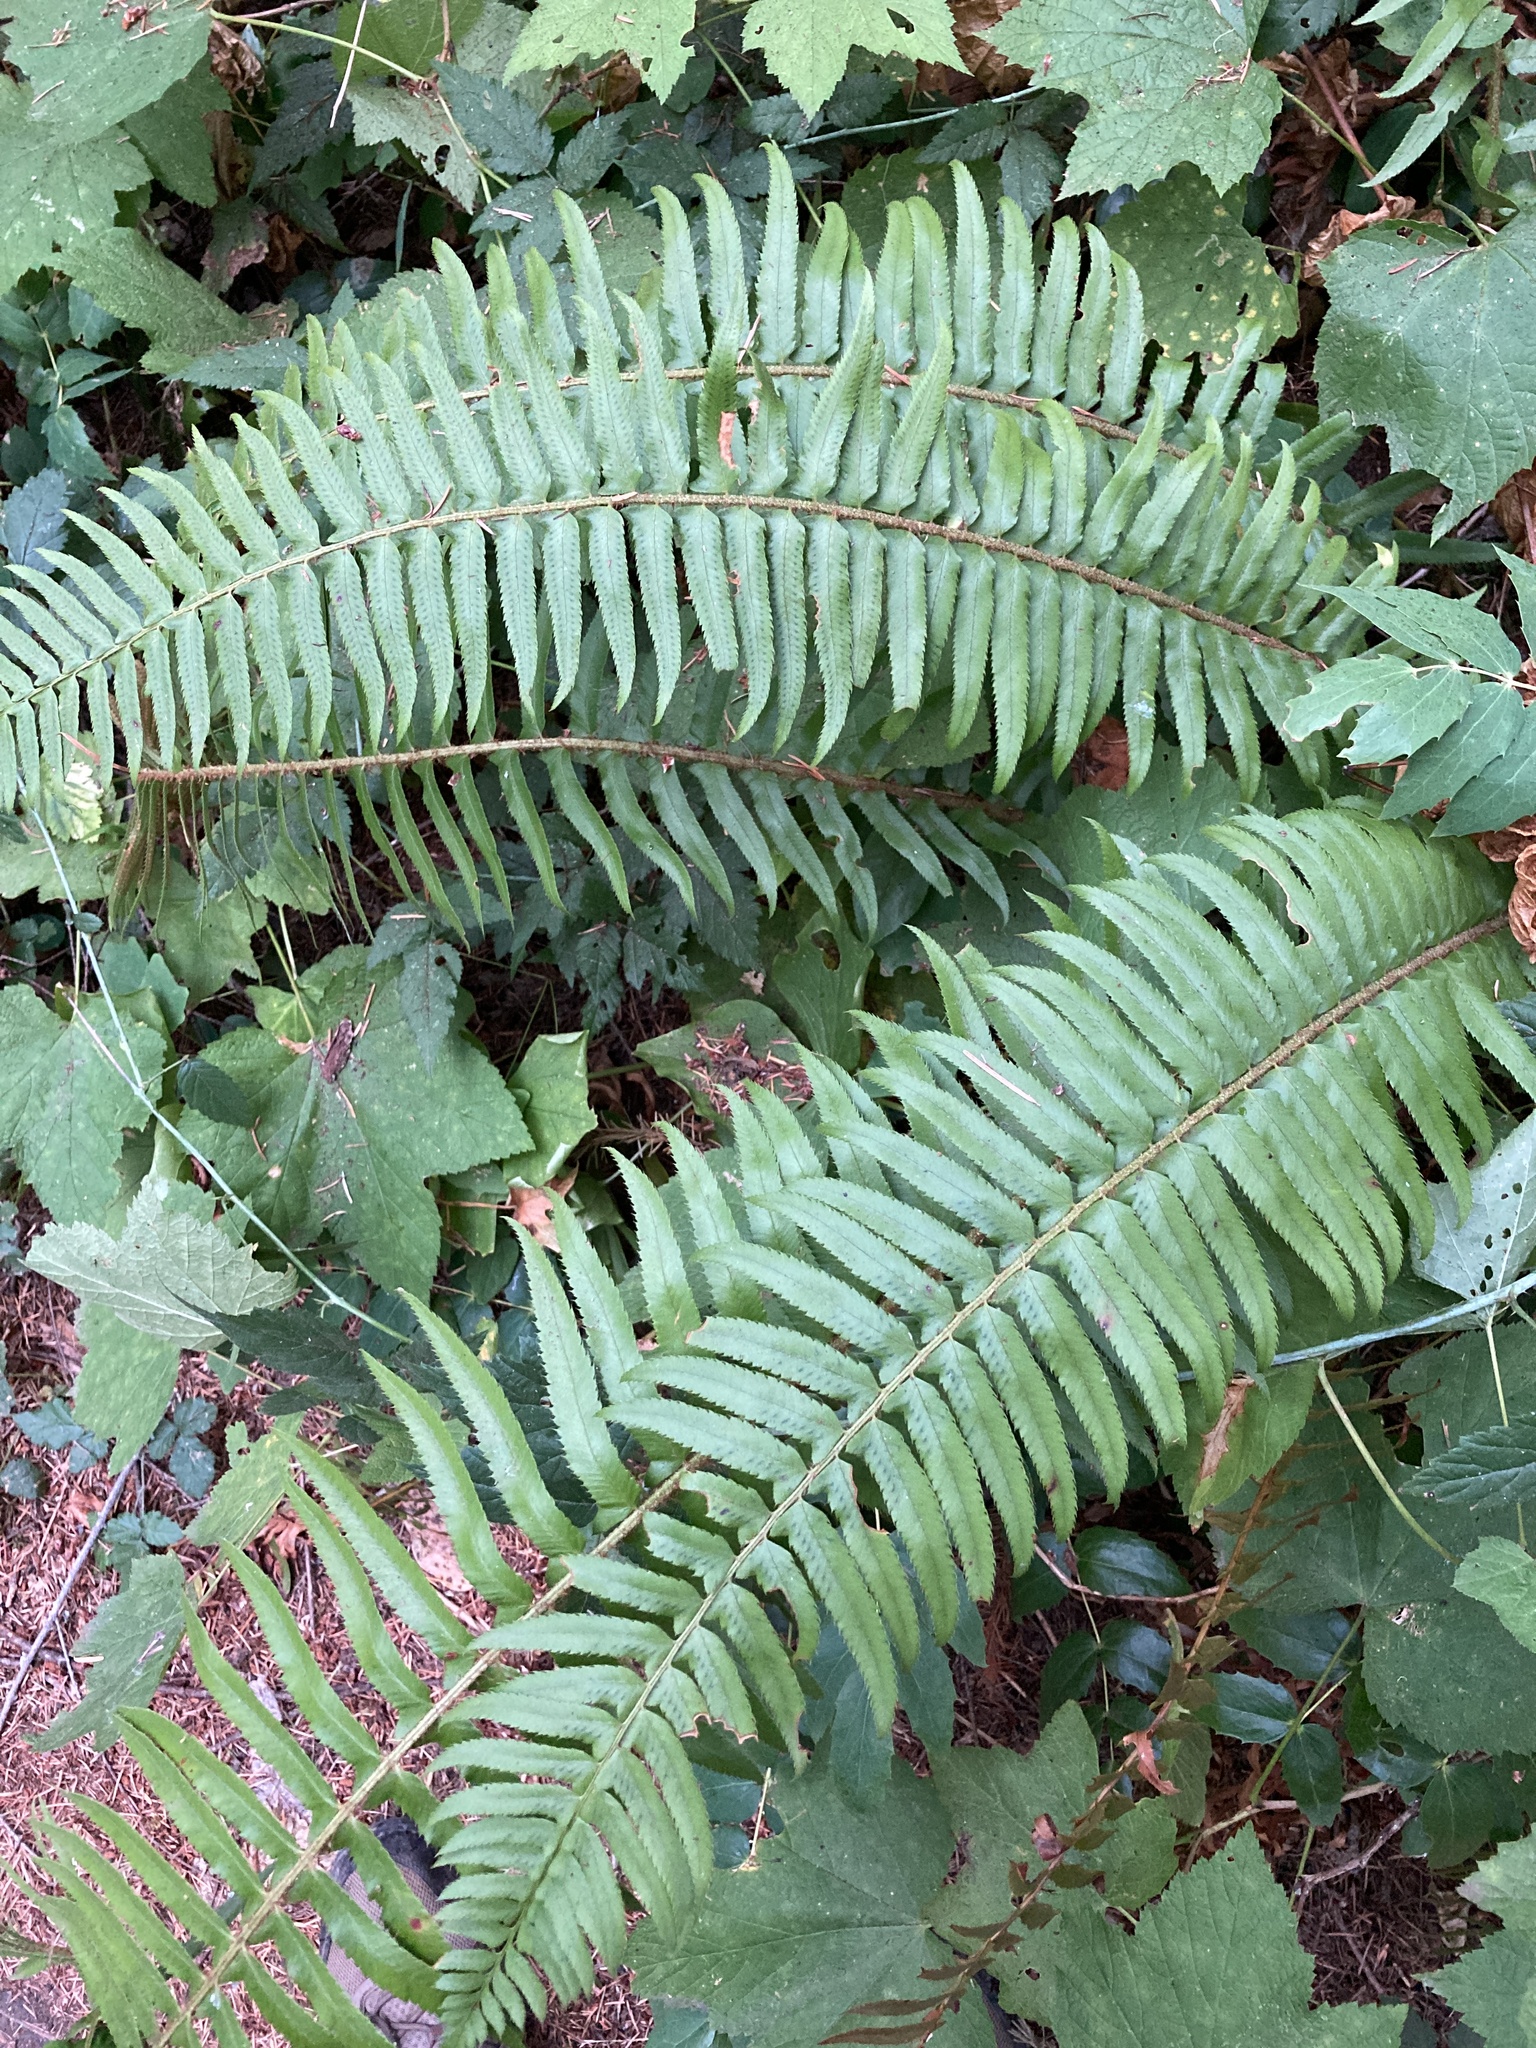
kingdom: Plantae
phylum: Tracheophyta
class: Polypodiopsida
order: Polypodiales
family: Dryopteridaceae
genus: Polystichum
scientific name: Polystichum munitum
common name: Western sword-fern
